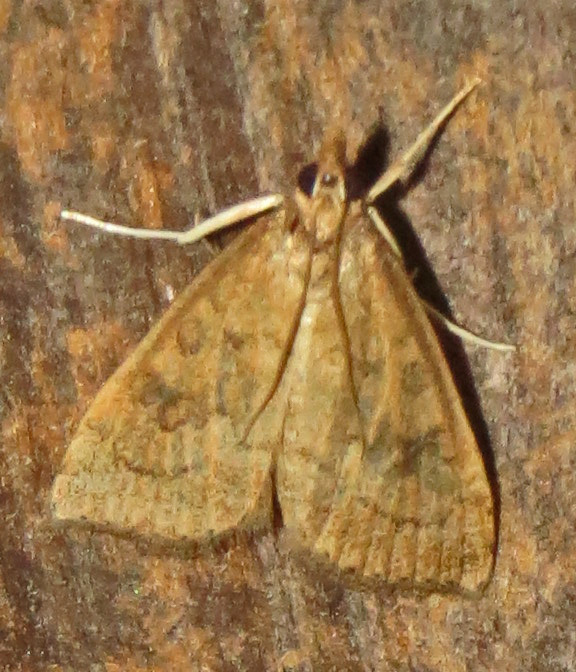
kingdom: Animalia
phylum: Arthropoda
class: Insecta
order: Lepidoptera
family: Crambidae
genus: Udea
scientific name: Udea rubigalis
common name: Celery leaftier moth
